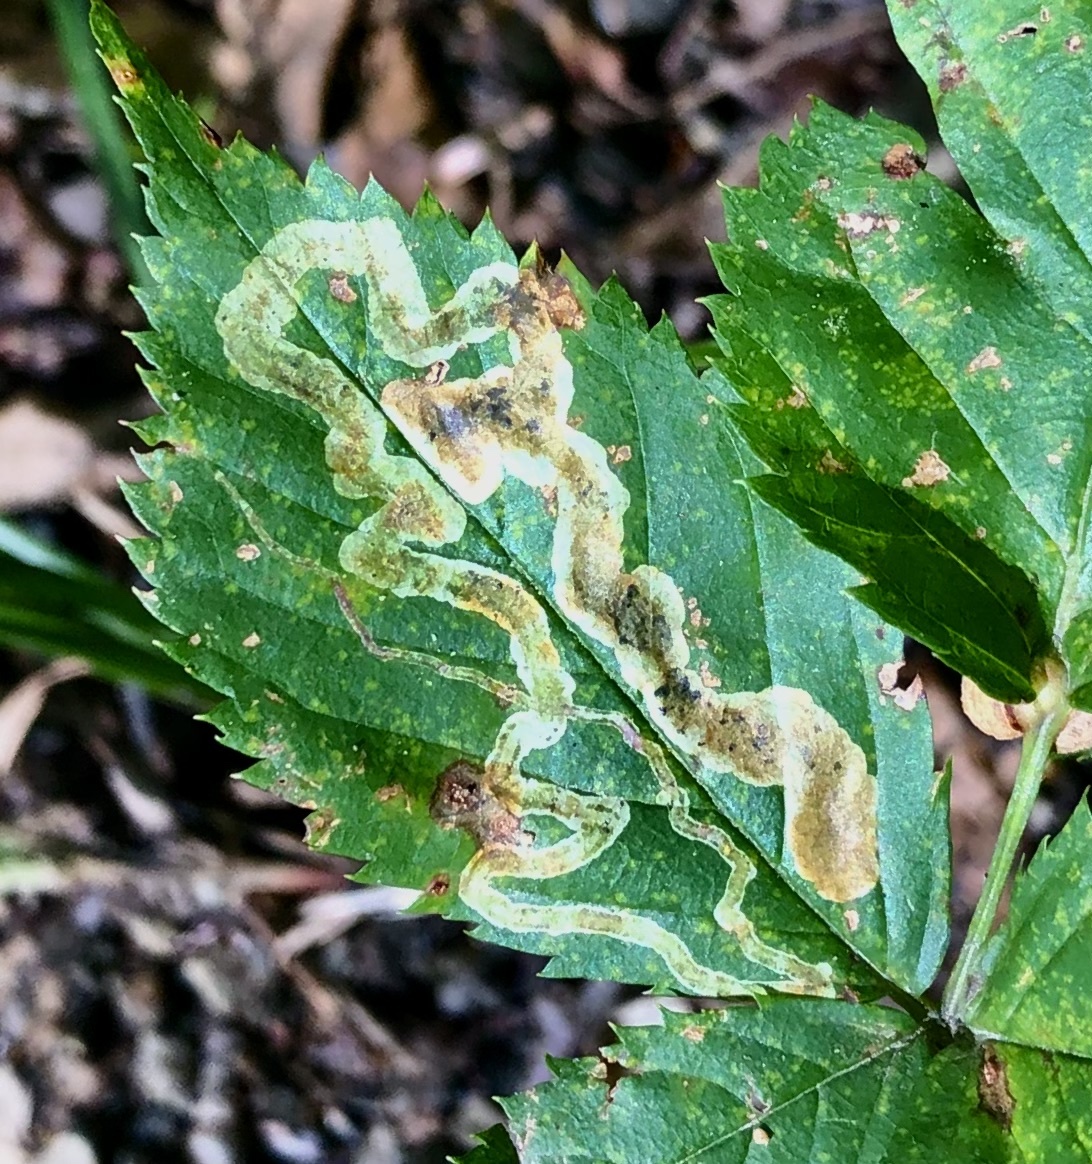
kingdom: Animalia
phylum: Arthropoda
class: Insecta
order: Diptera
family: Agromyzidae
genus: Agromyza
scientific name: Agromyza vockerothi
